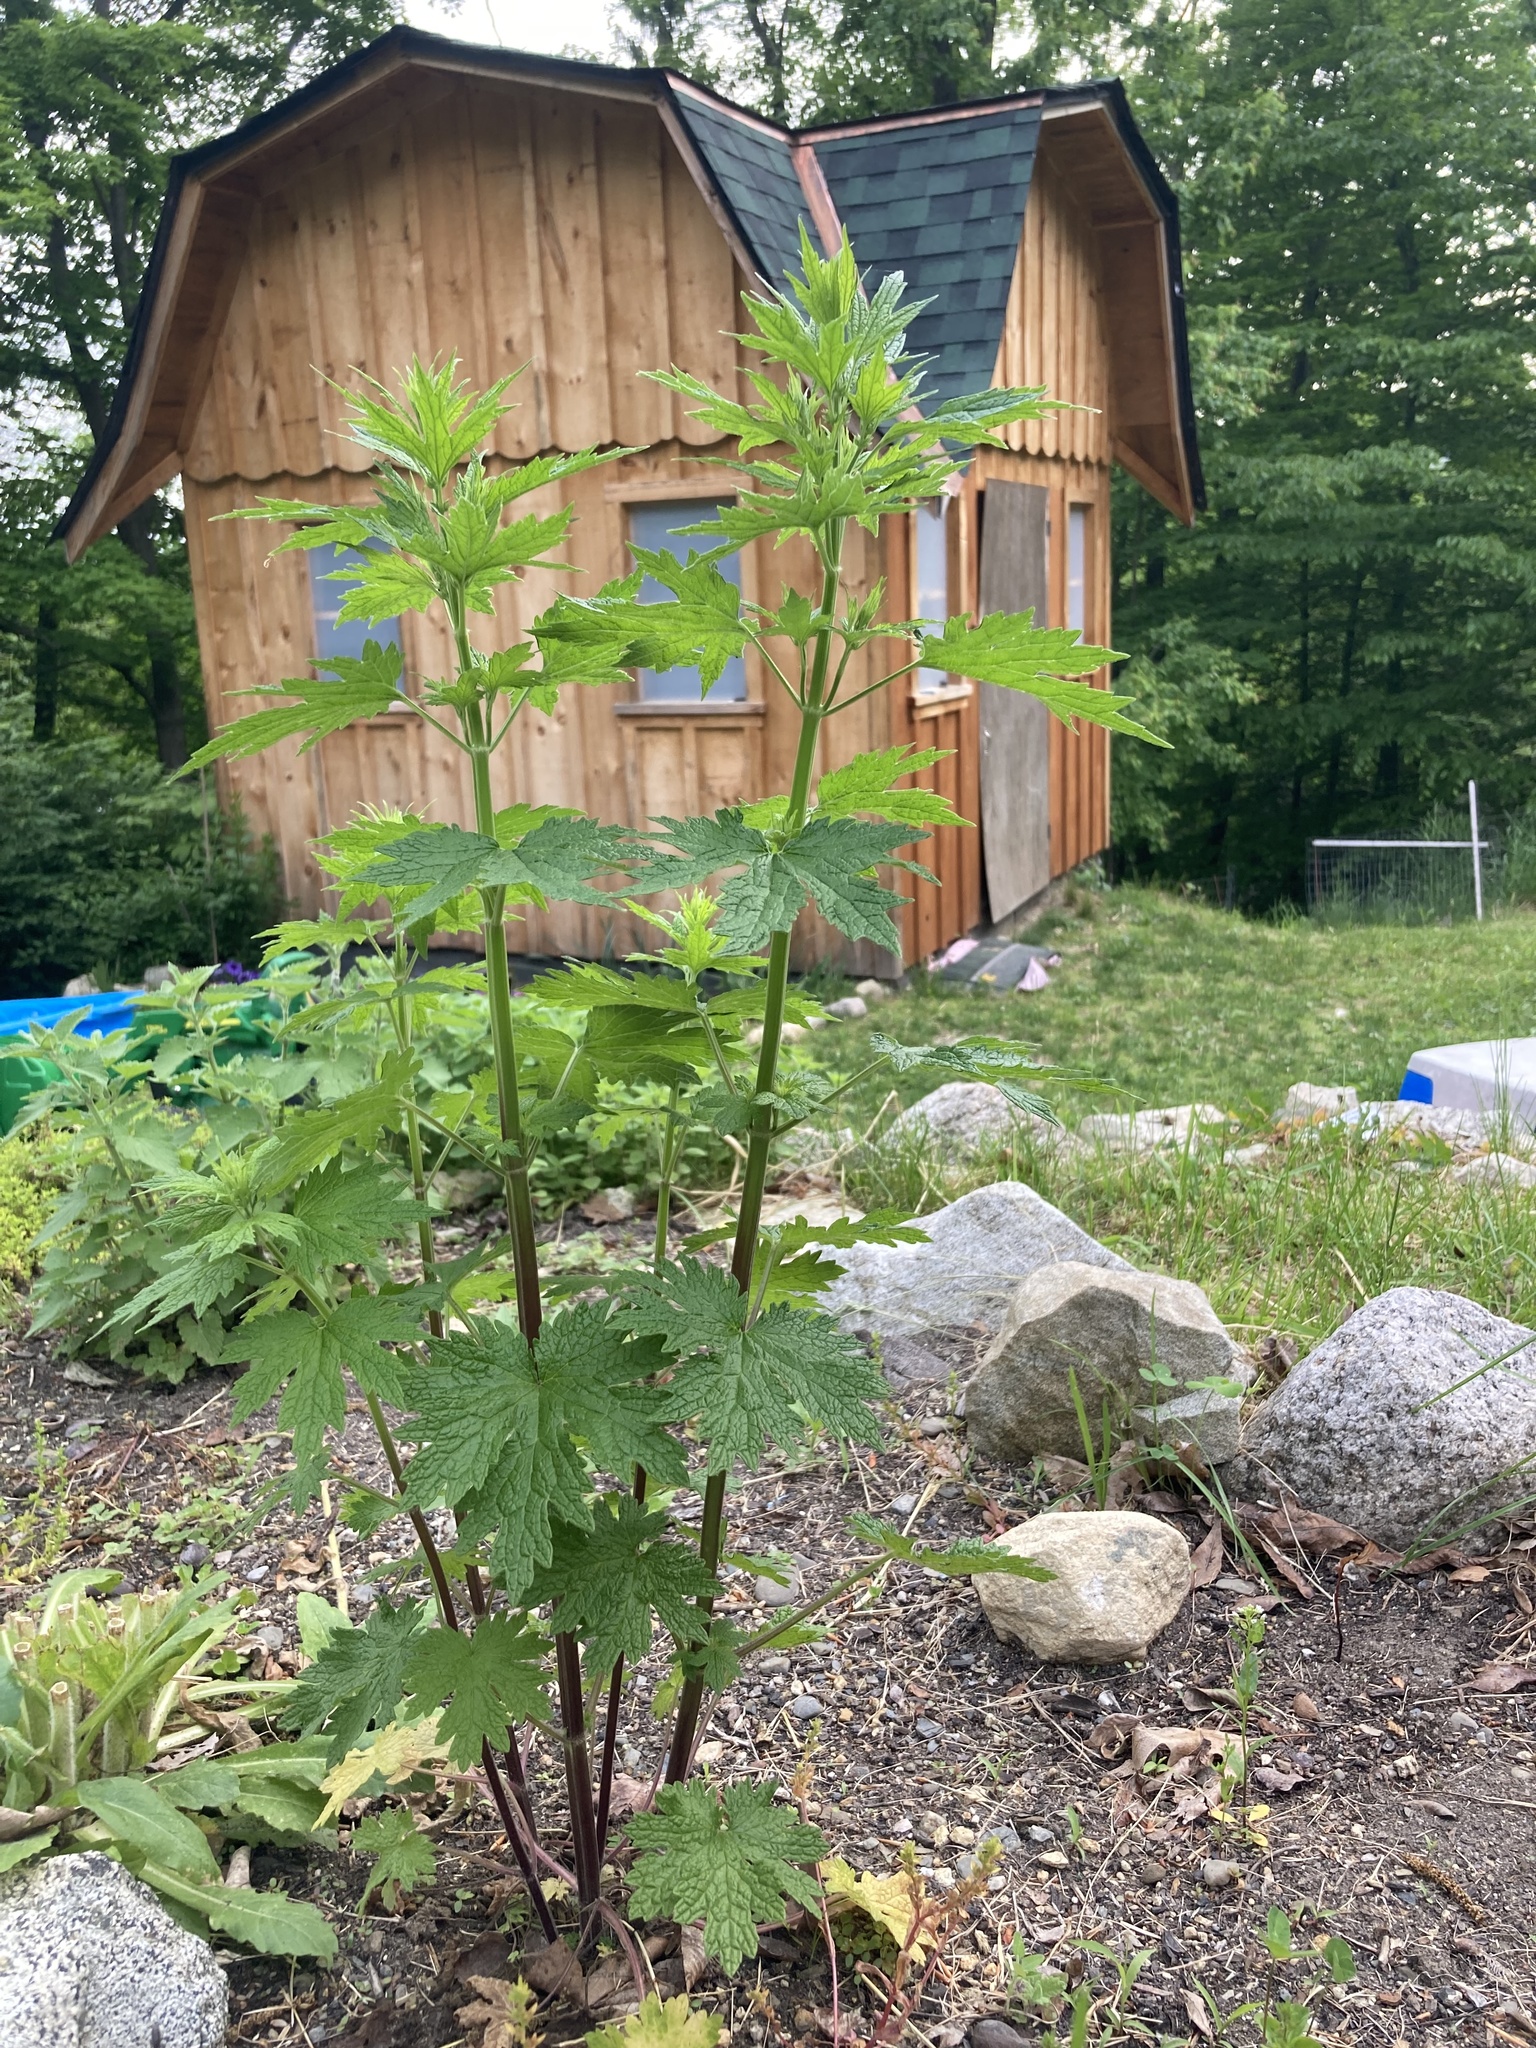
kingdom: Plantae
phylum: Tracheophyta
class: Magnoliopsida
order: Lamiales
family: Lamiaceae
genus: Leonurus
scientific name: Leonurus cardiaca
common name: Motherwort
